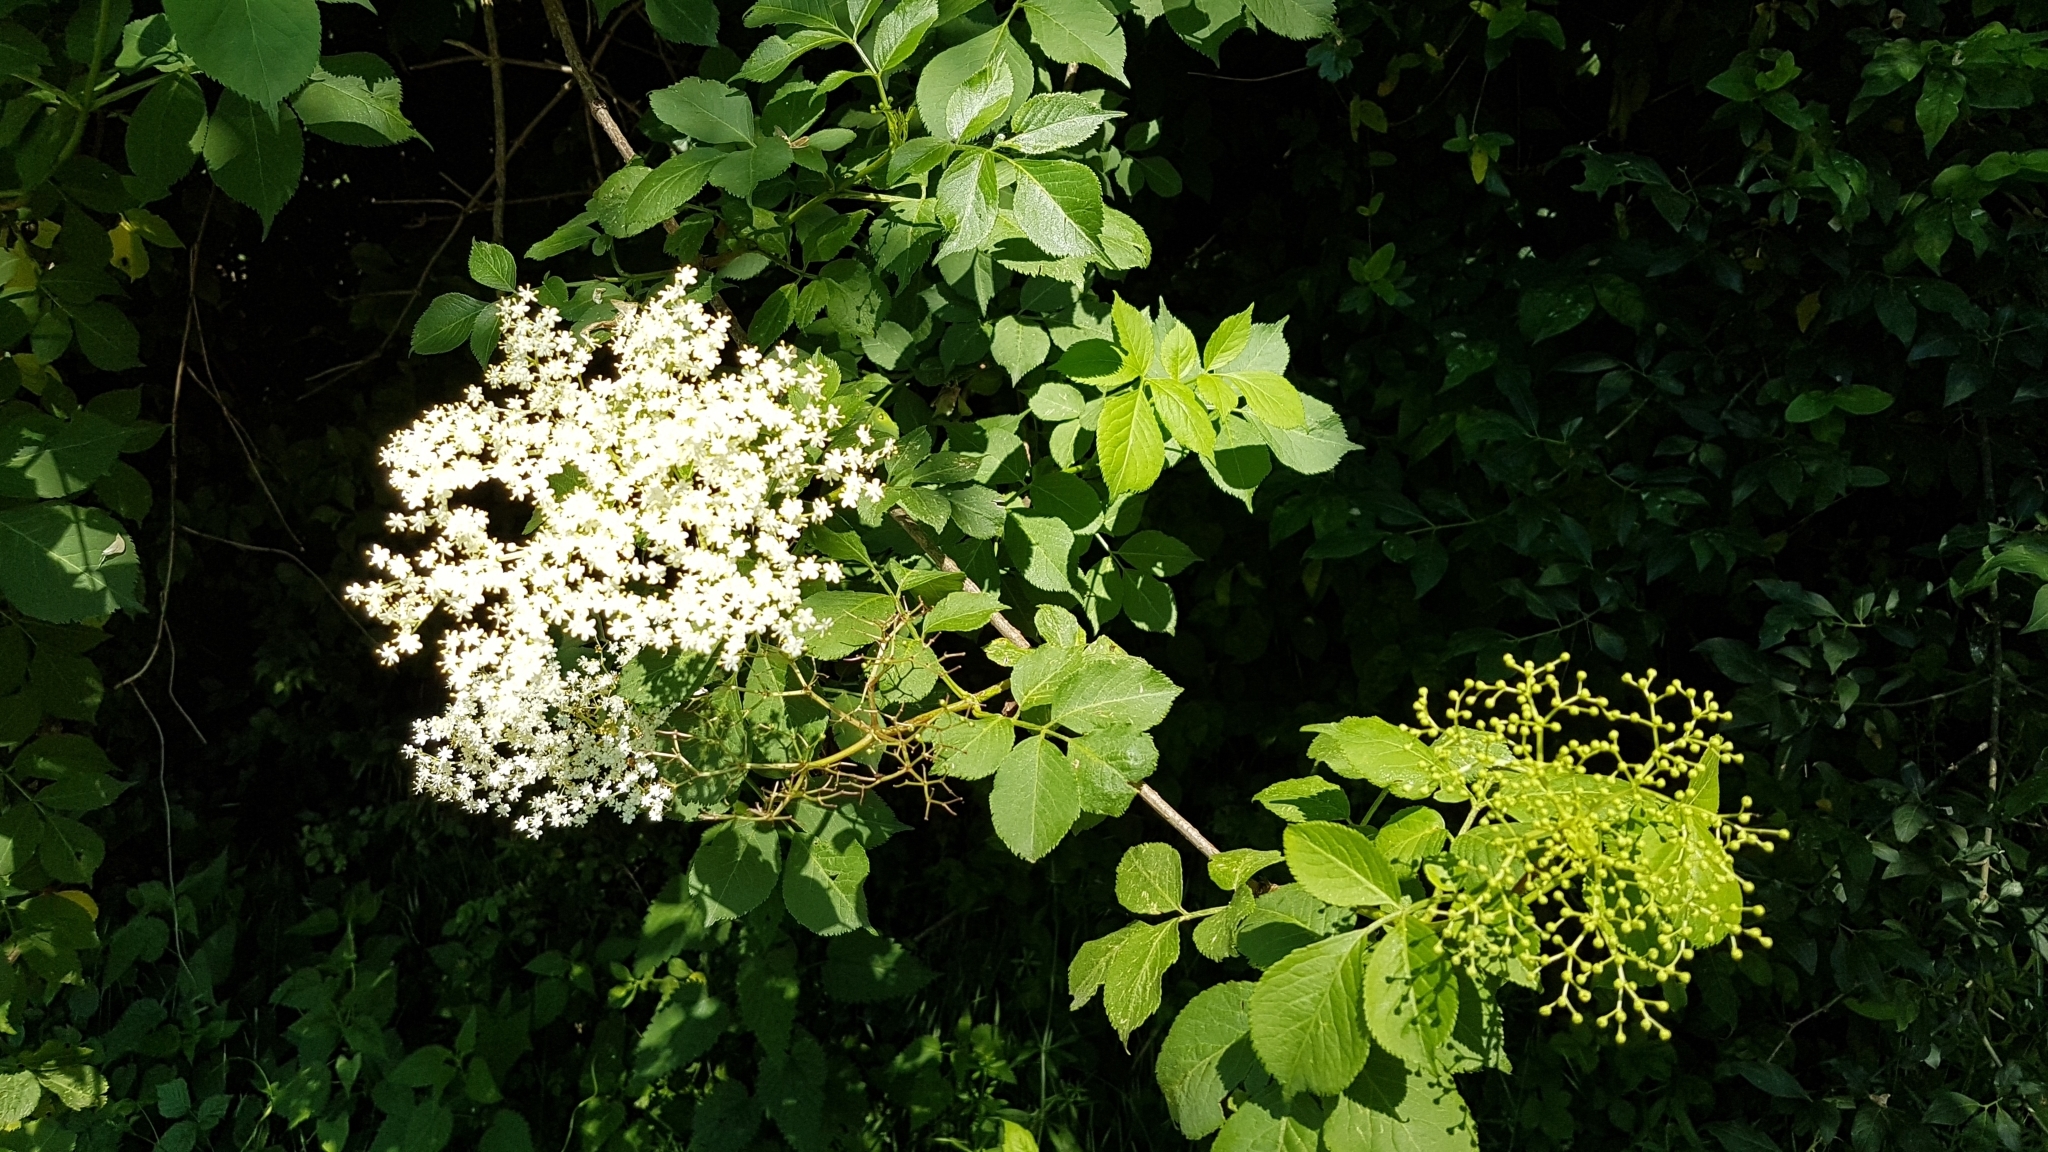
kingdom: Plantae
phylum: Tracheophyta
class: Magnoliopsida
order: Dipsacales
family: Viburnaceae
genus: Sambucus
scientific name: Sambucus nigra
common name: Elder
